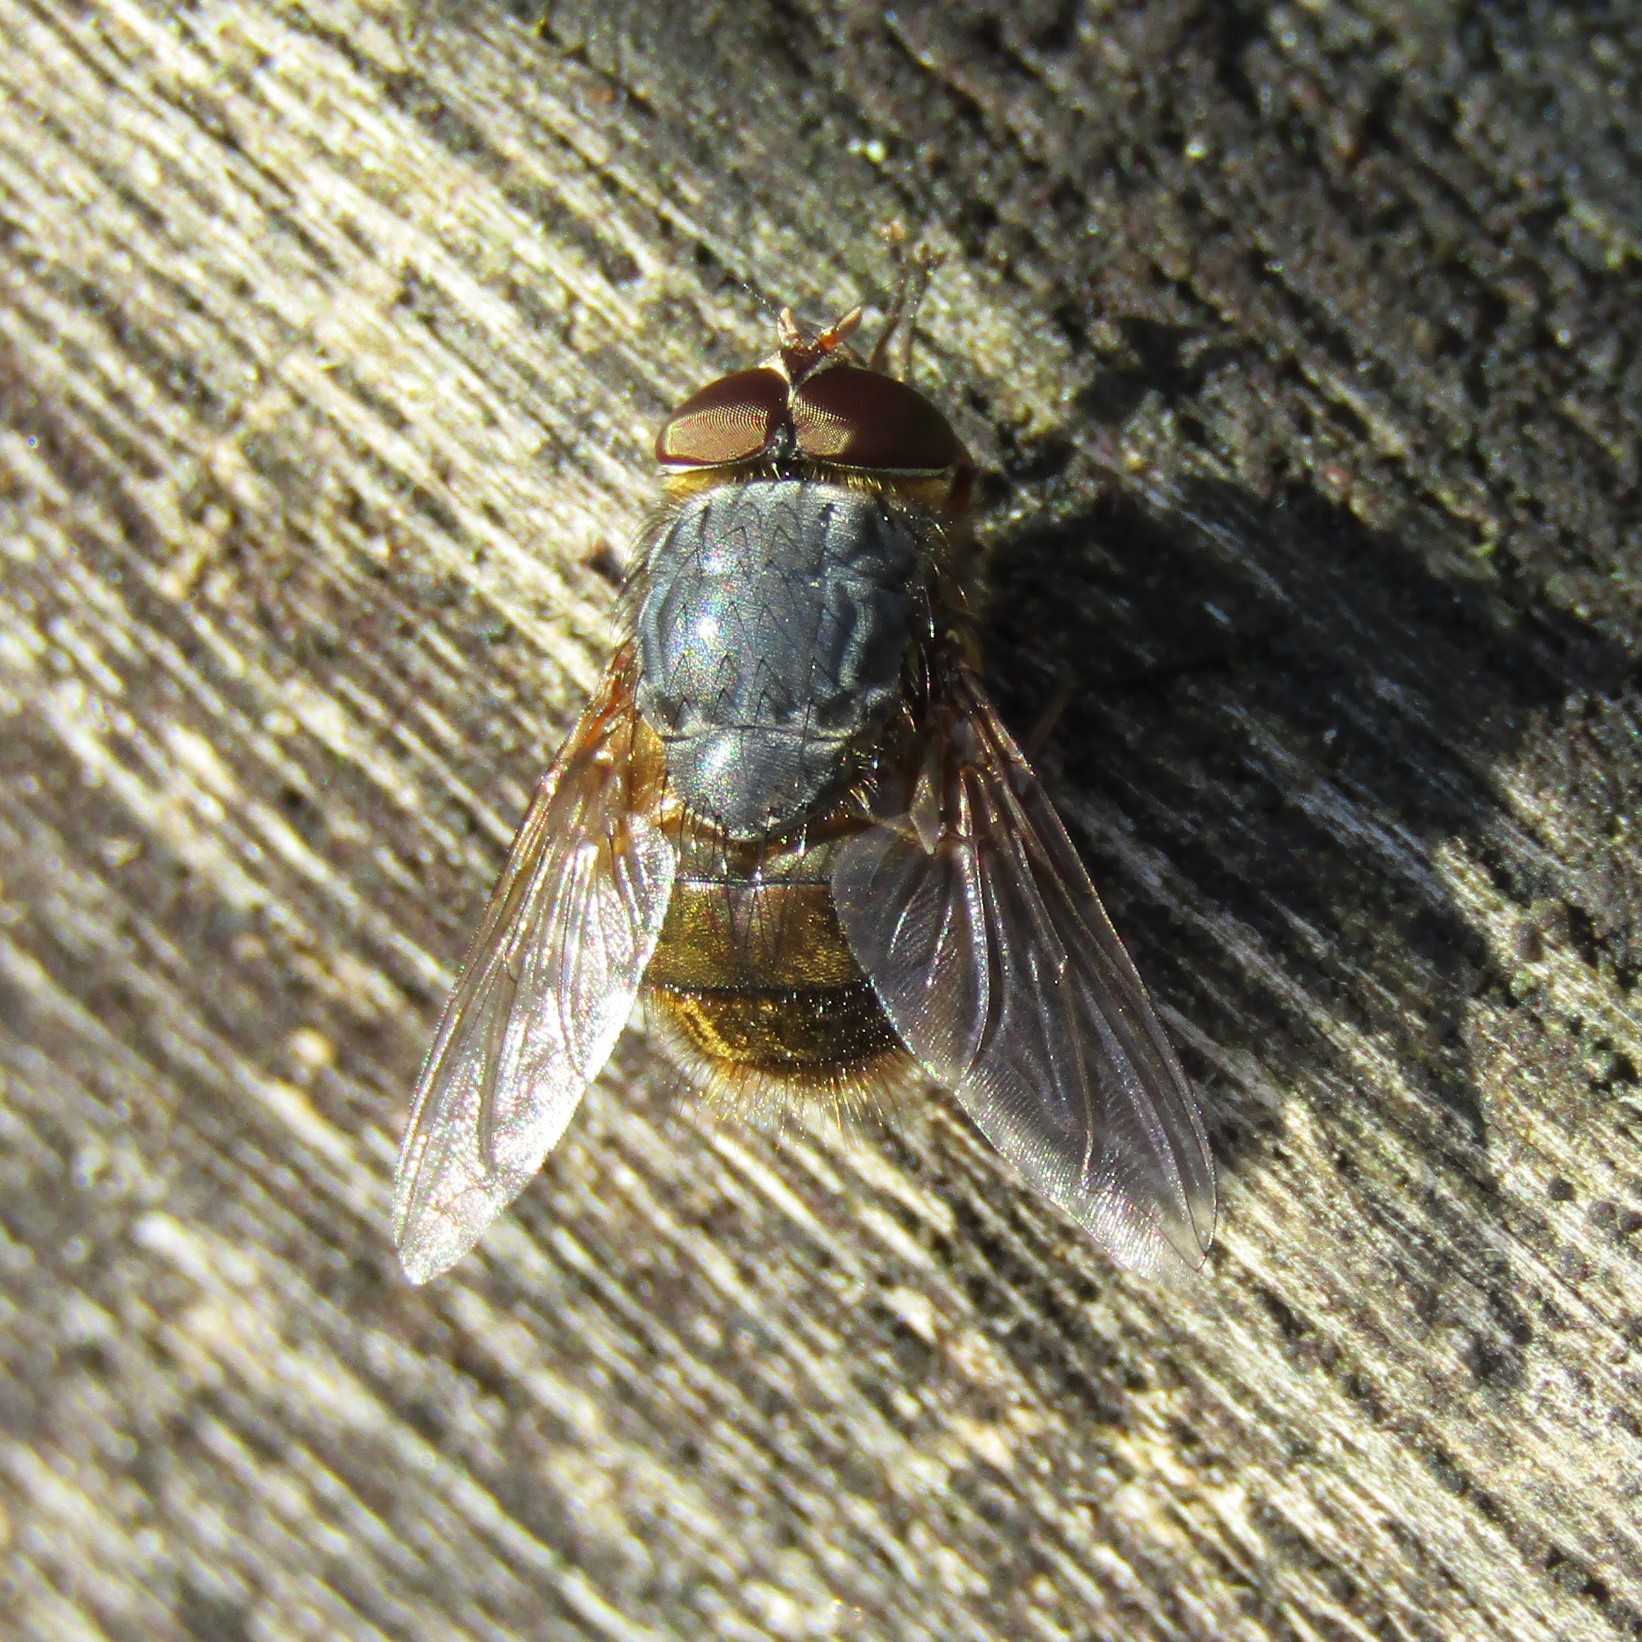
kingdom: Animalia
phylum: Arthropoda
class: Insecta
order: Diptera
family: Calliphoridae
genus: Calliphora
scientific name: Calliphora stygia
